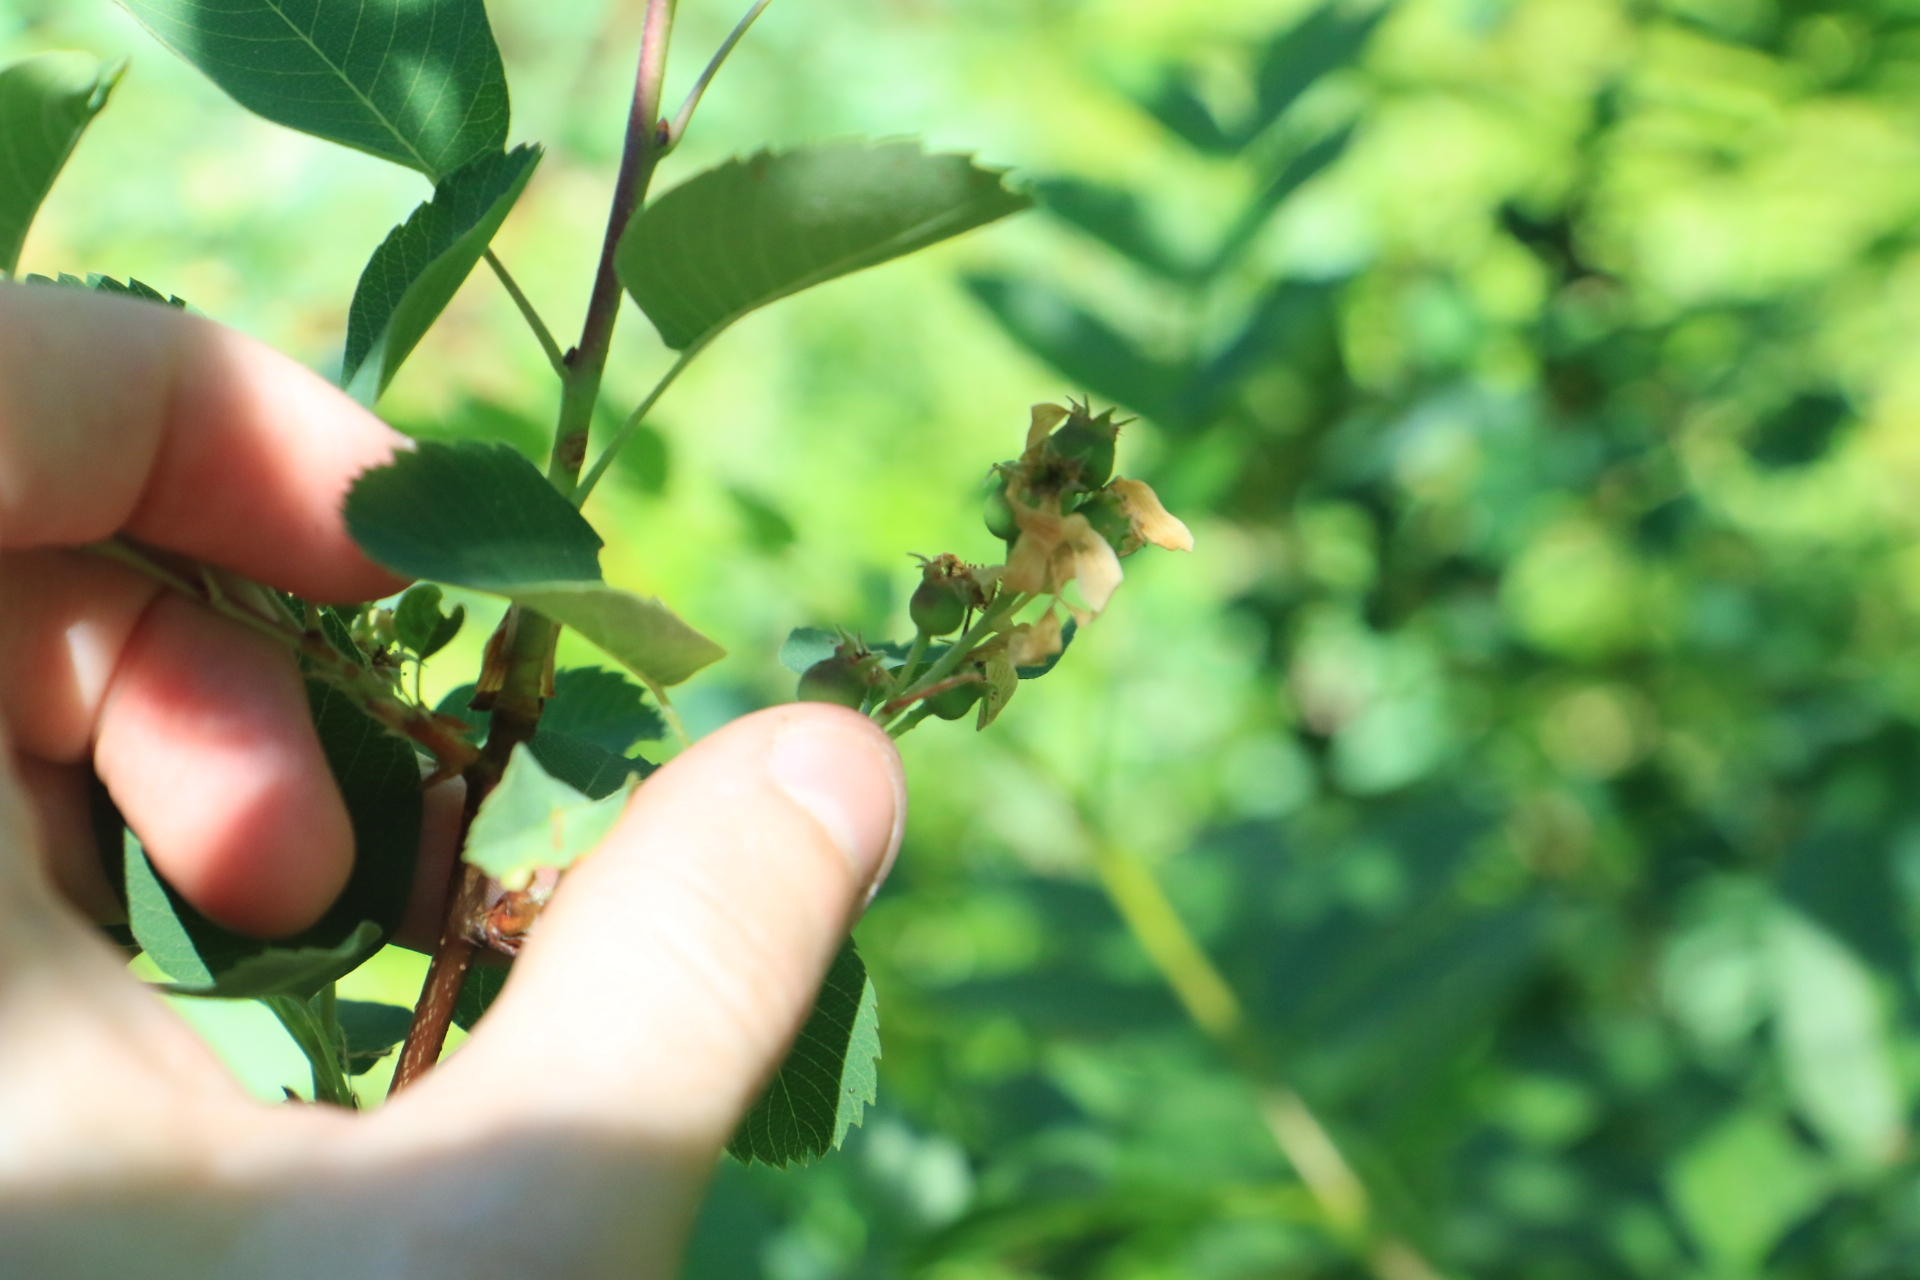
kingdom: Plantae
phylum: Tracheophyta
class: Magnoliopsida
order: Rosales
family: Rosaceae
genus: Amelanchier
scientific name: Amelanchier alnifolia
